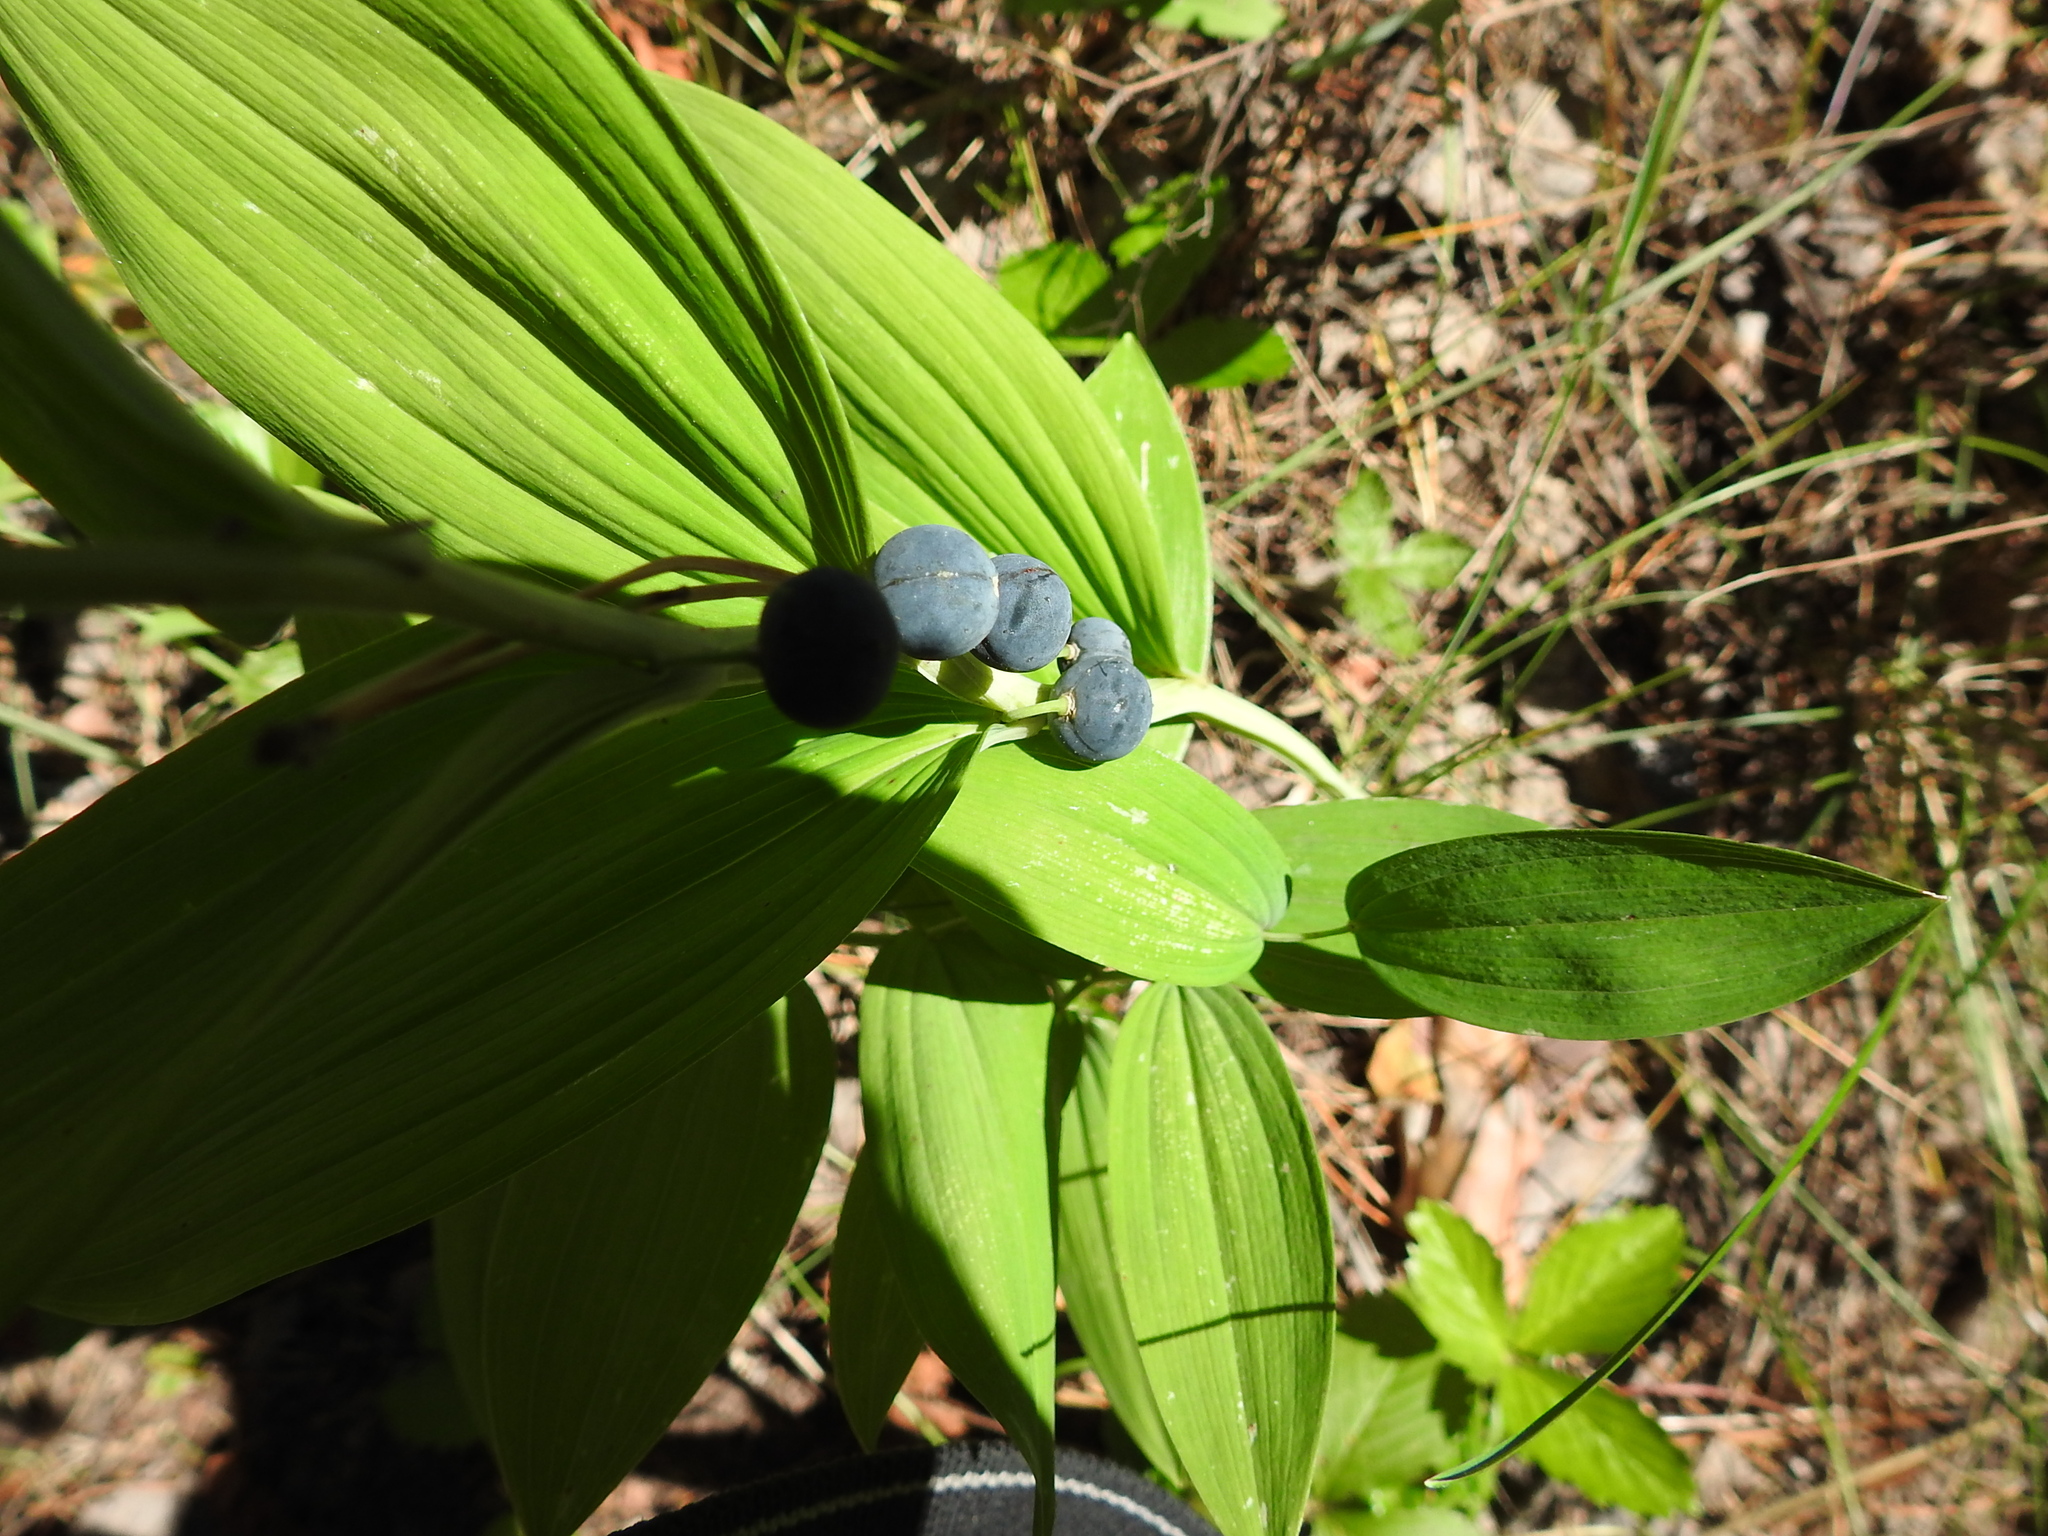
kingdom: Plantae
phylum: Tracheophyta
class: Liliopsida
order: Asparagales
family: Asparagaceae
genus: Polygonatum
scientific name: Polygonatum odoratum
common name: Angular solomon's-seal
